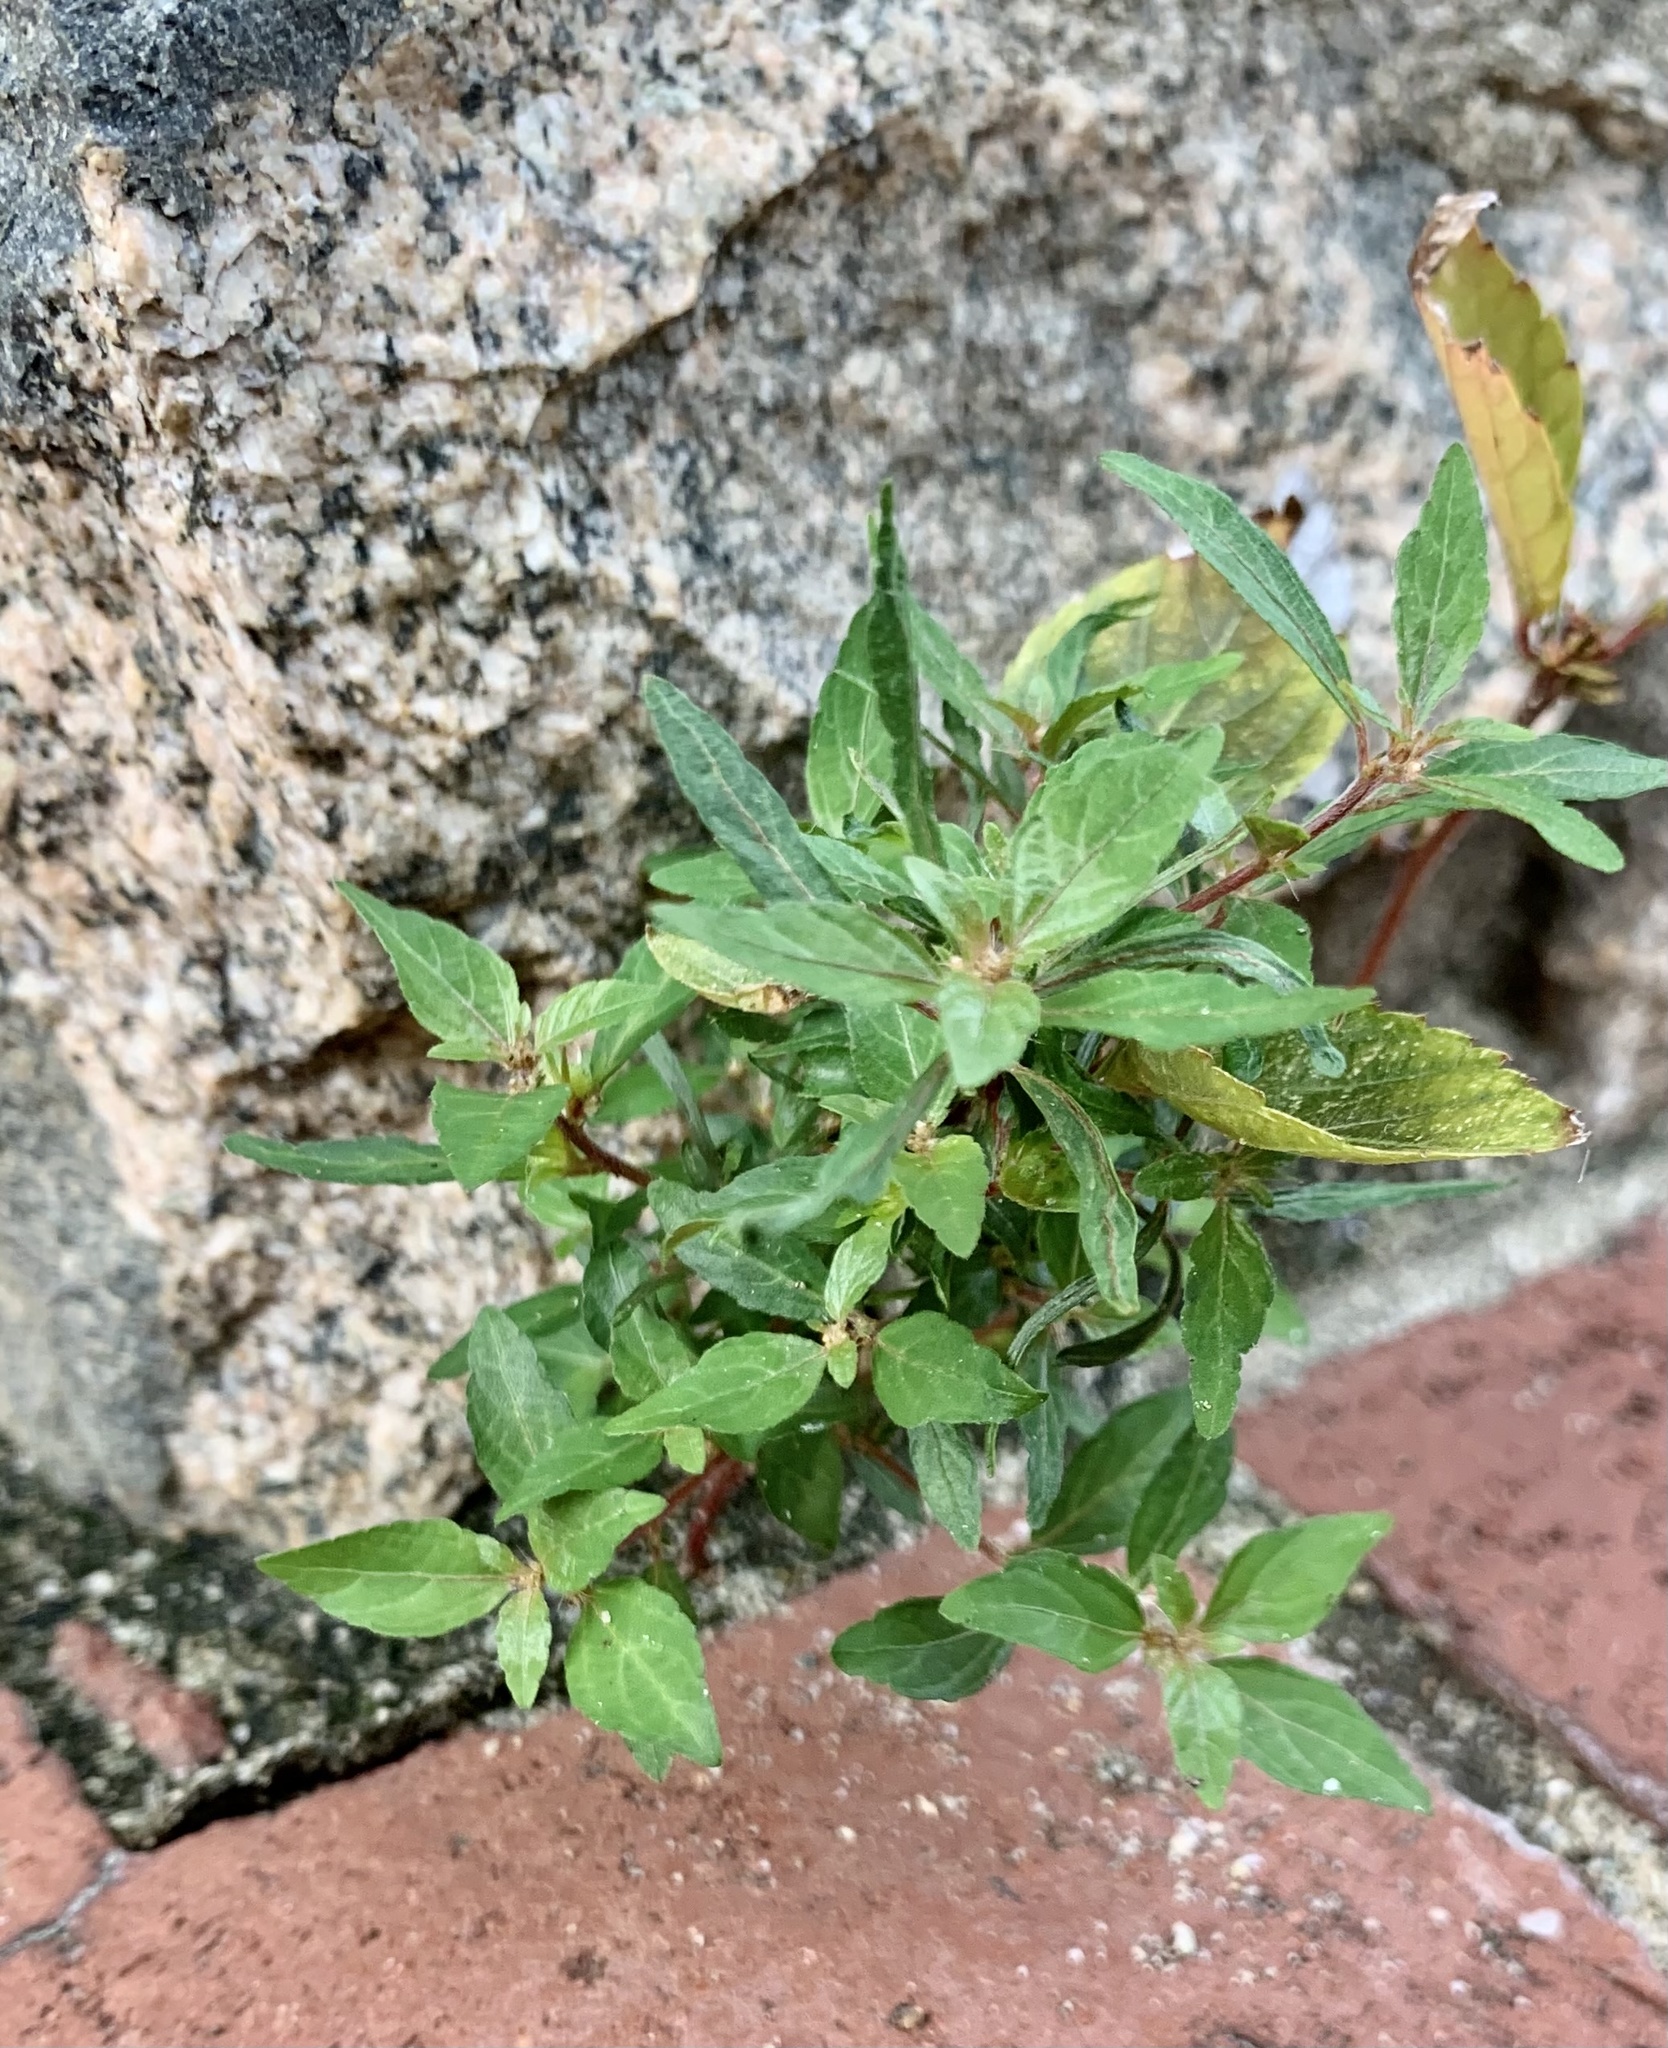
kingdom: Plantae
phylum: Tracheophyta
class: Magnoliopsida
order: Malpighiales
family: Euphorbiaceae
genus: Acalypha
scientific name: Acalypha virginica
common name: Virginia copperleaf
